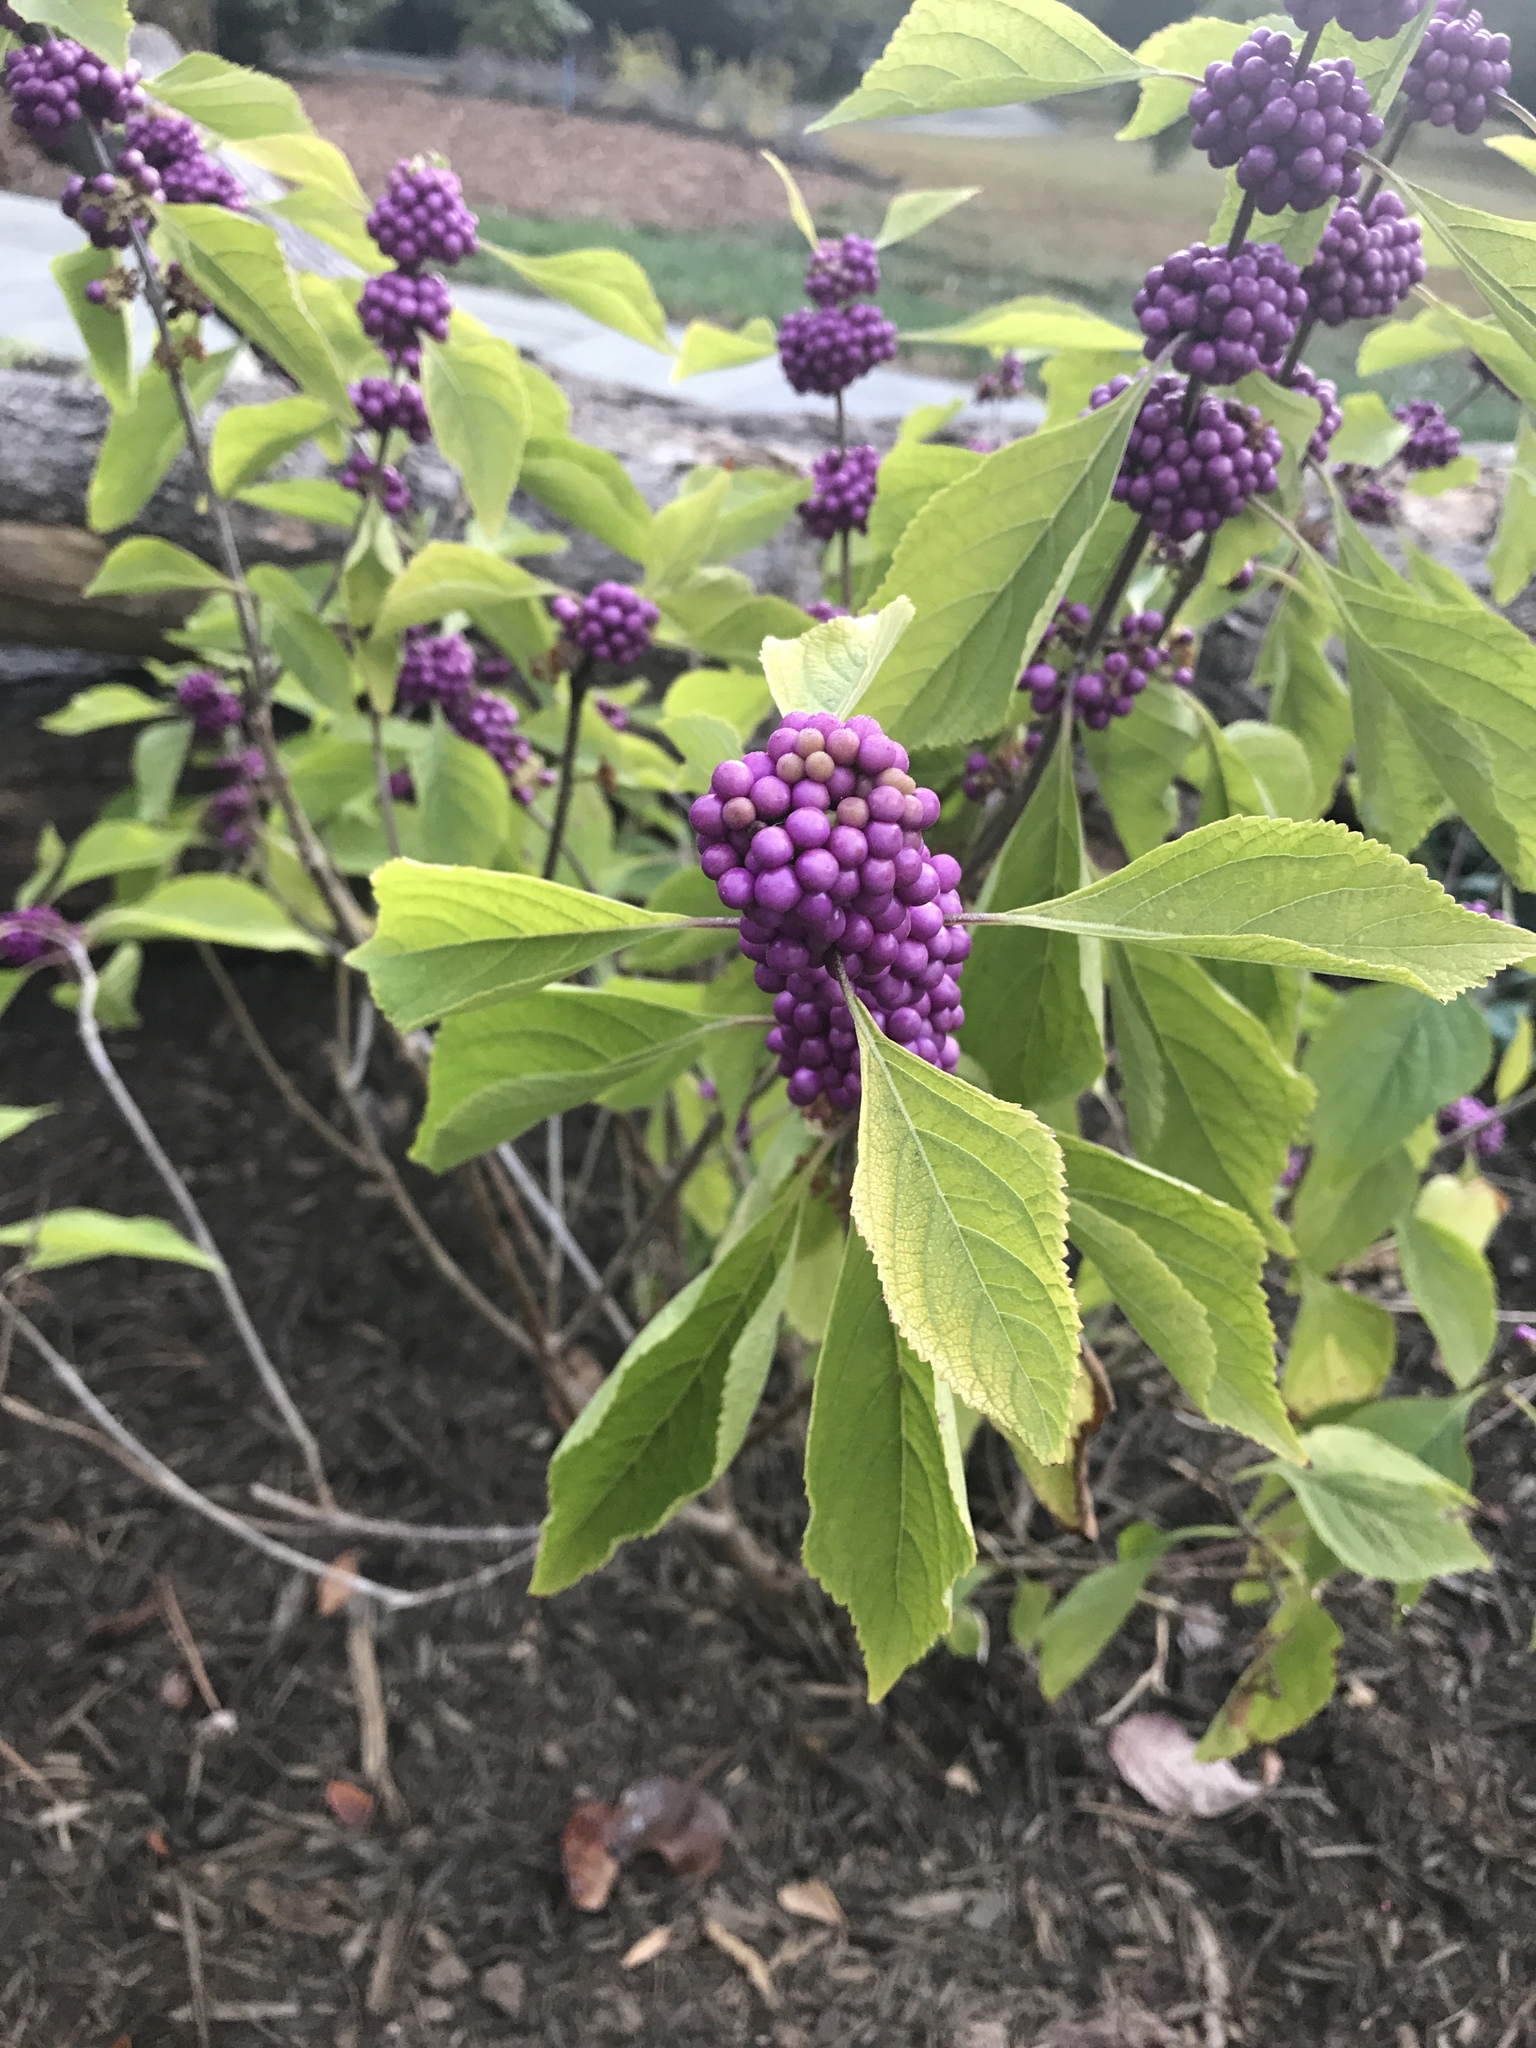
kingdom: Plantae
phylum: Tracheophyta
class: Magnoliopsida
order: Lamiales
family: Lamiaceae
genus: Callicarpa
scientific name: Callicarpa americana
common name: American beautyberry
